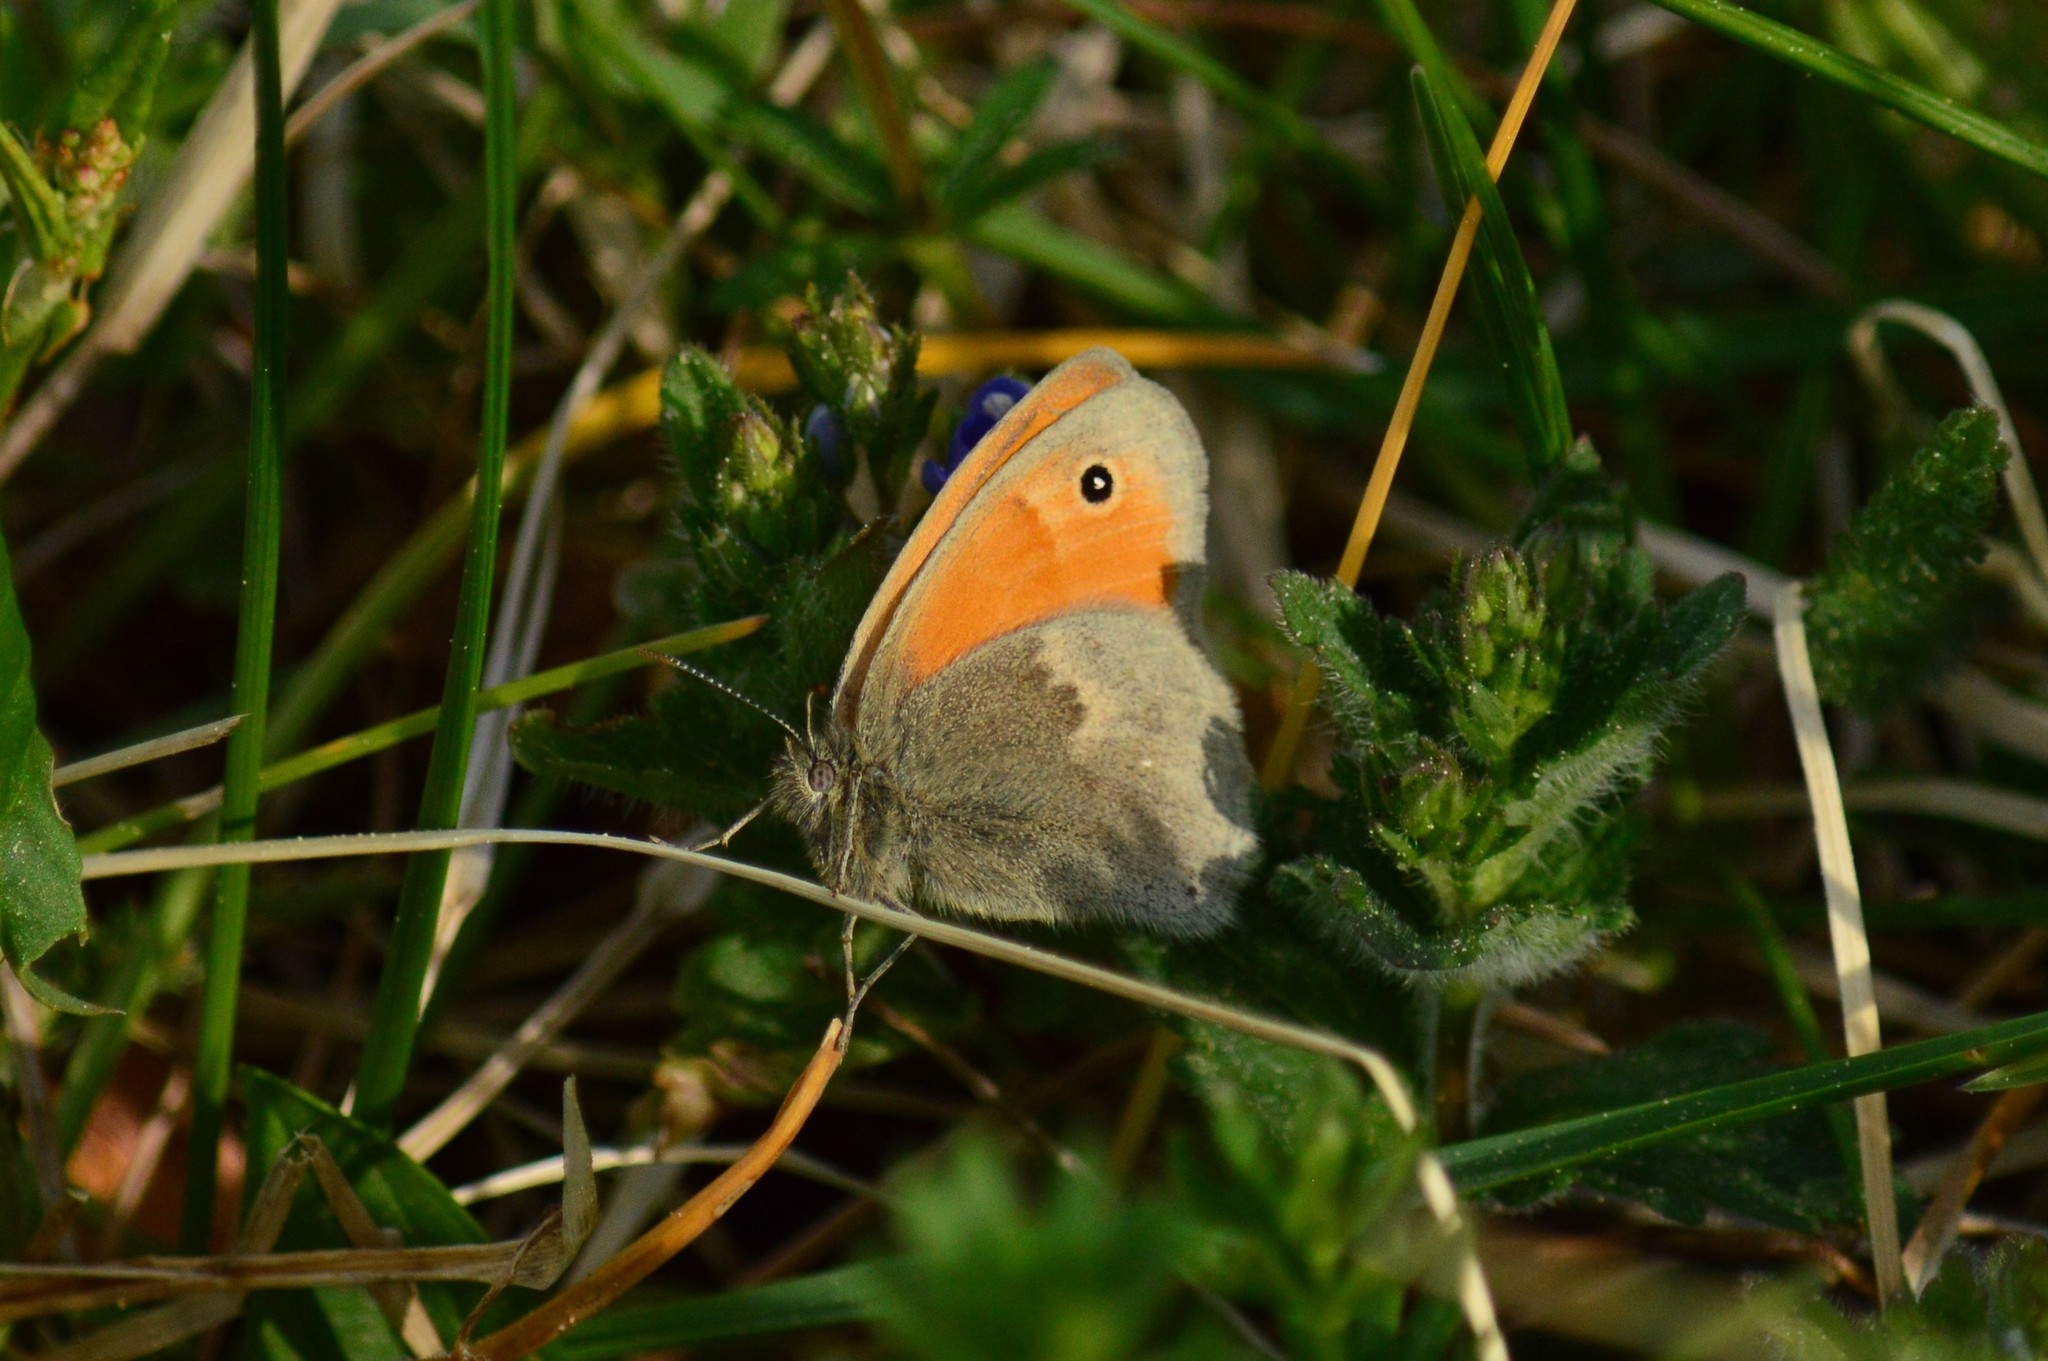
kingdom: Animalia
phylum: Arthropoda
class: Insecta
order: Lepidoptera
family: Nymphalidae
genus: Coenonympha
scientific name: Coenonympha pamphilus
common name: Small heath
